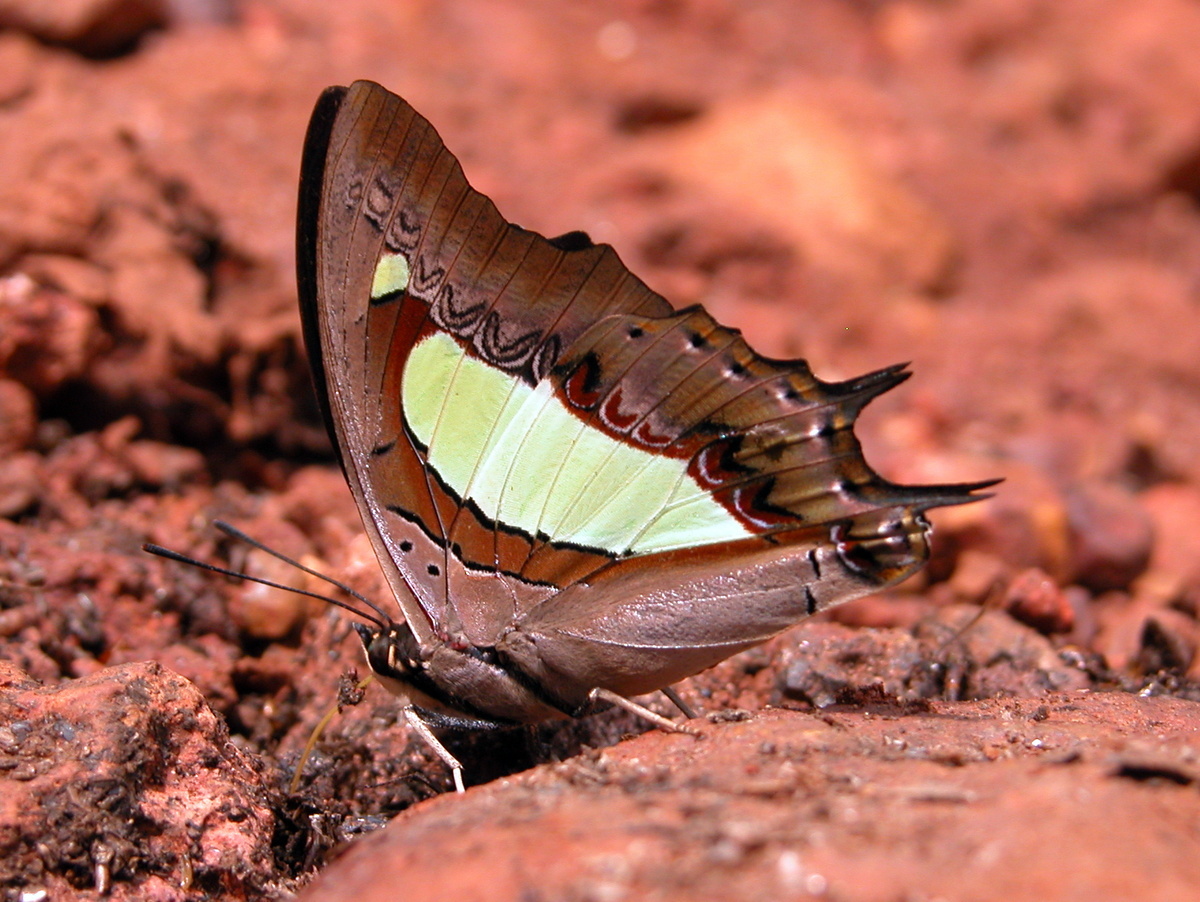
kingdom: Animalia
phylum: Arthropoda
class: Insecta
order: Lepidoptera
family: Nymphalidae
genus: Polyura
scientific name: Polyura
